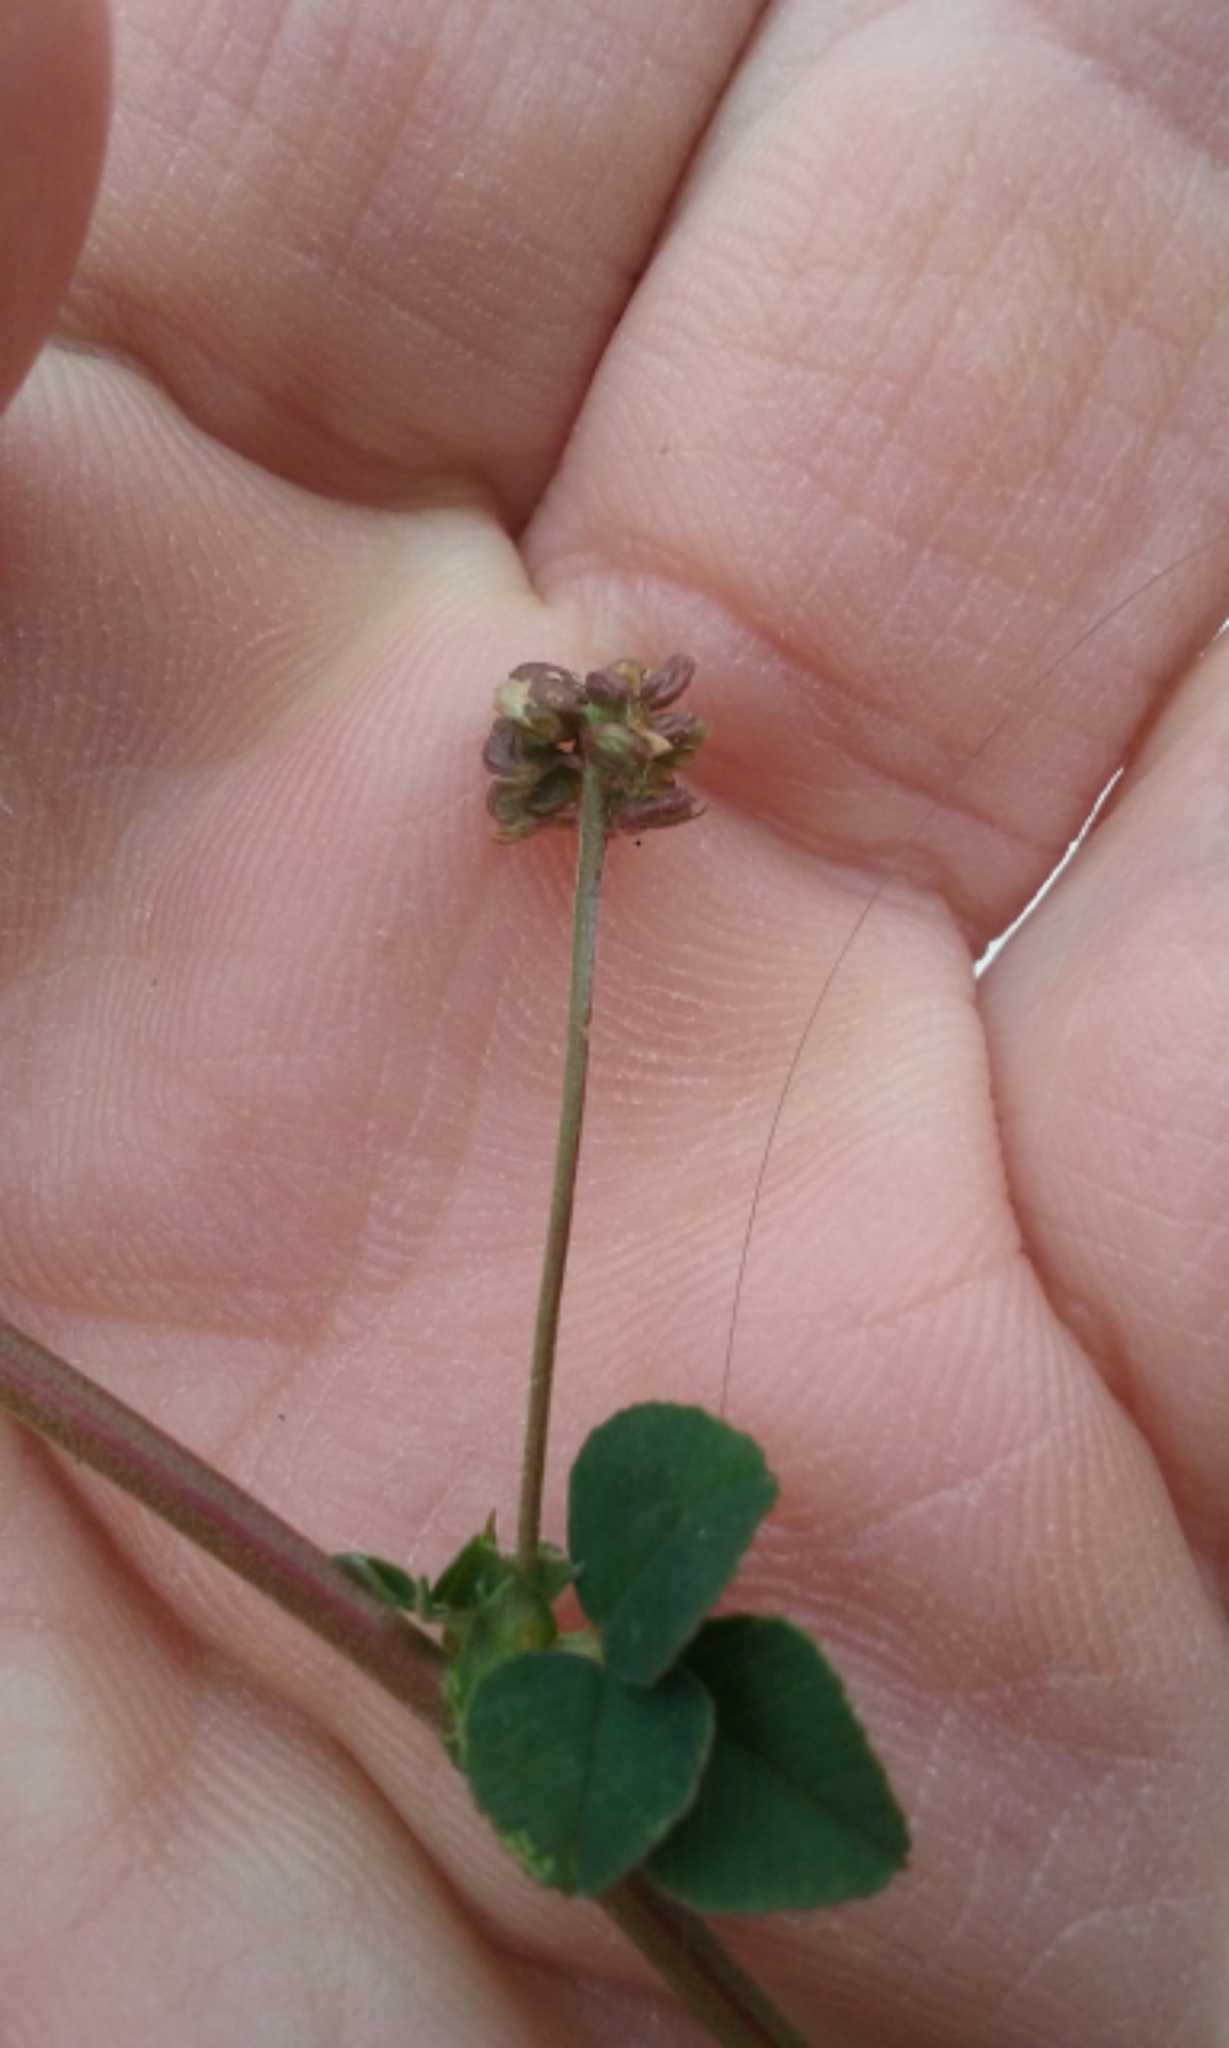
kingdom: Plantae
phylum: Tracheophyta
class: Magnoliopsida
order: Fabales
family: Fabaceae
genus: Medicago
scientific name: Medicago lupulina
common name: Black medick
